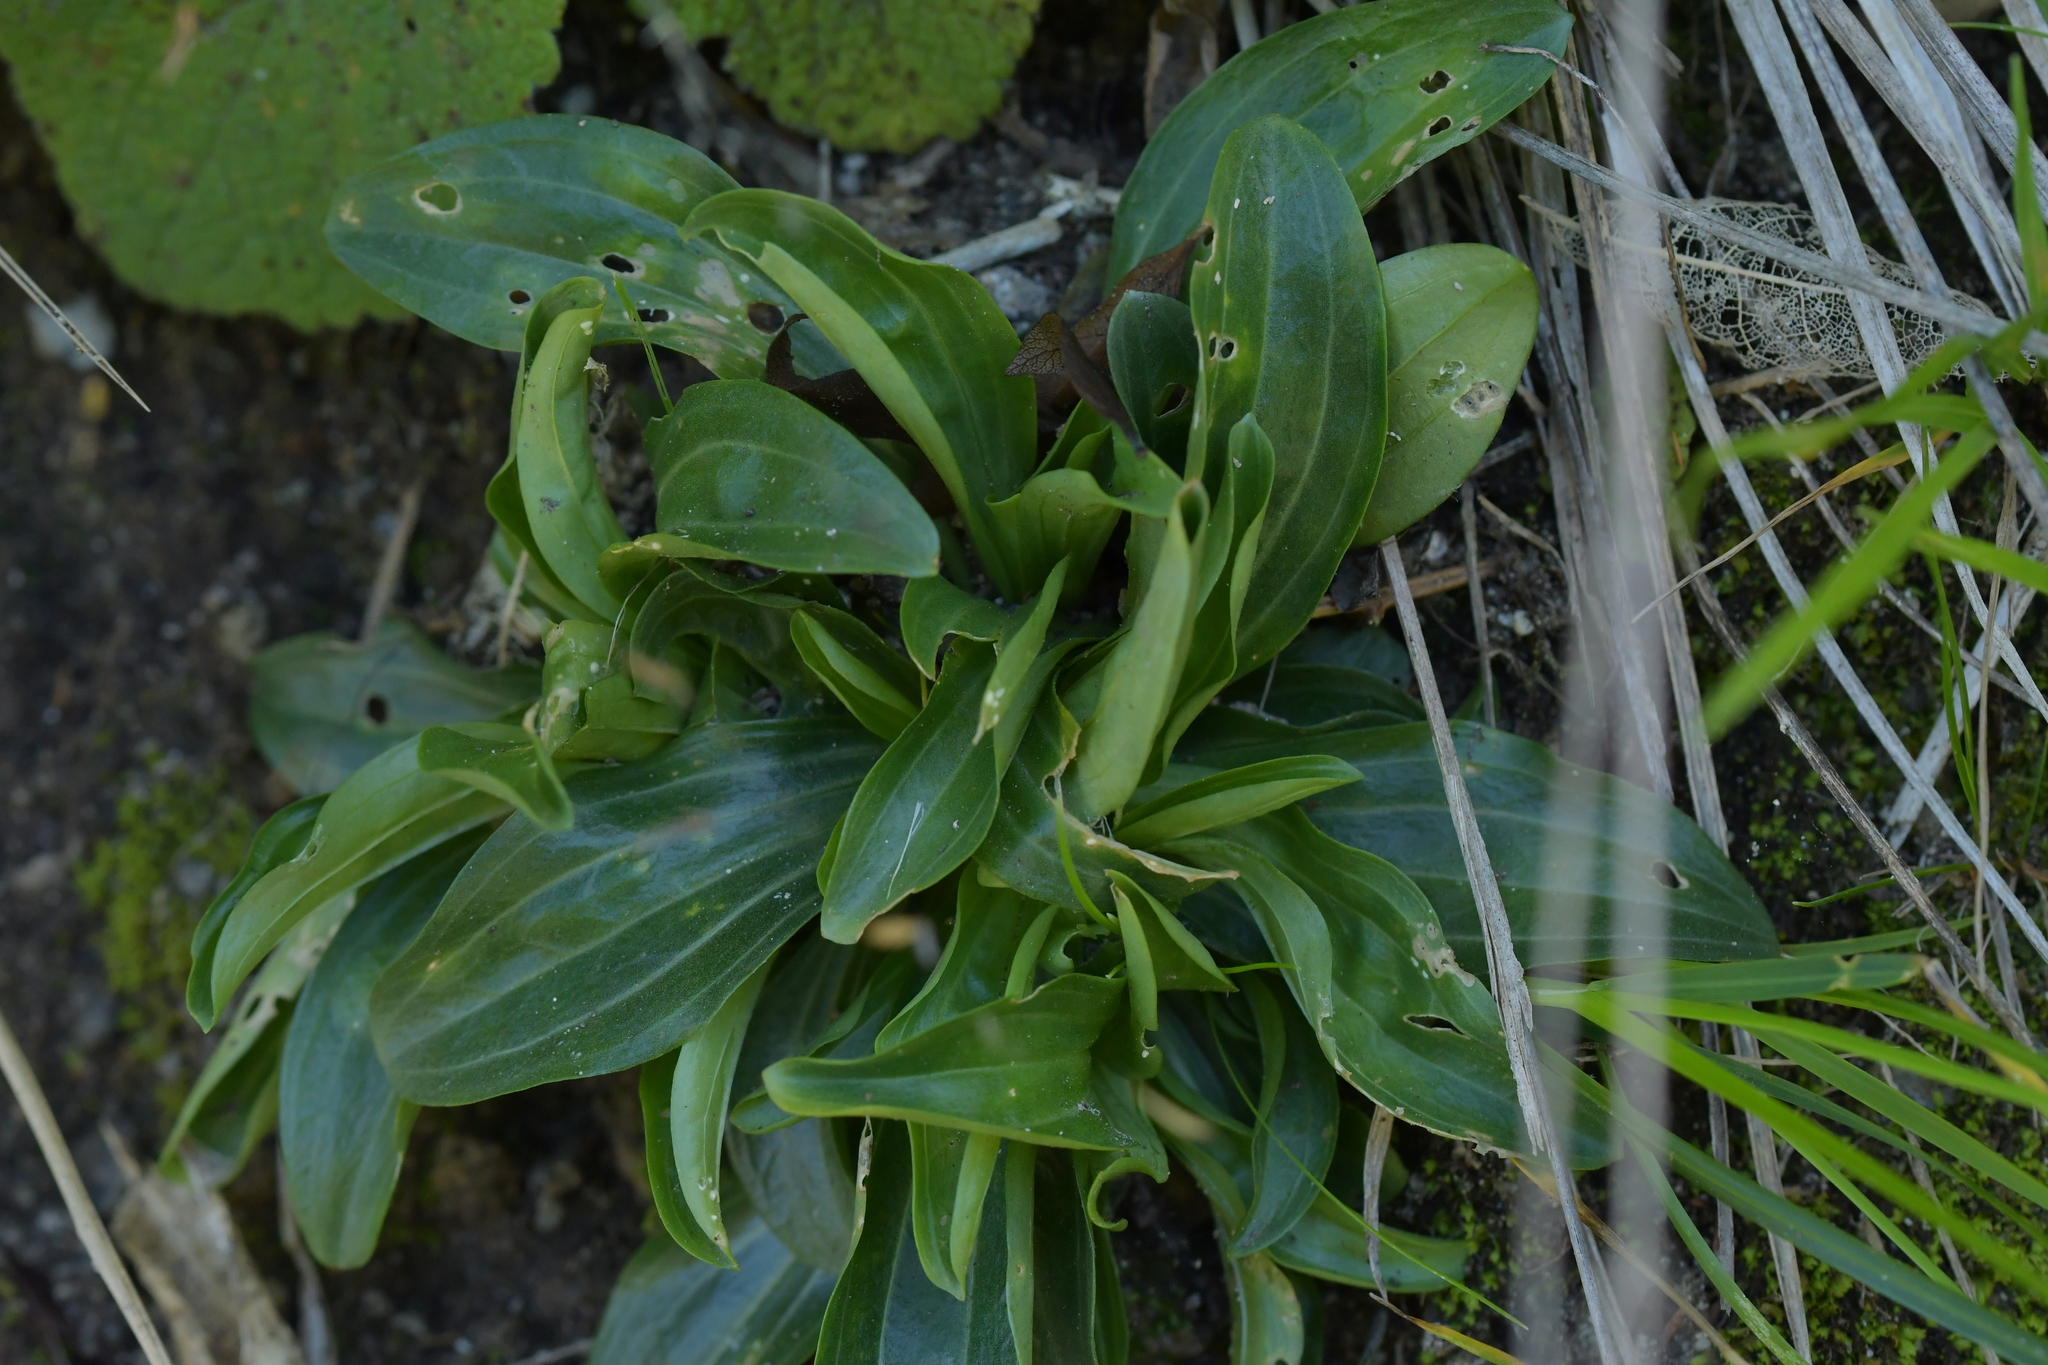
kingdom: Plantae
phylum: Tracheophyta
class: Magnoliopsida
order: Gentianales
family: Gentianaceae
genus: Centaurium
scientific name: Centaurium erythraea
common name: Common centaury
